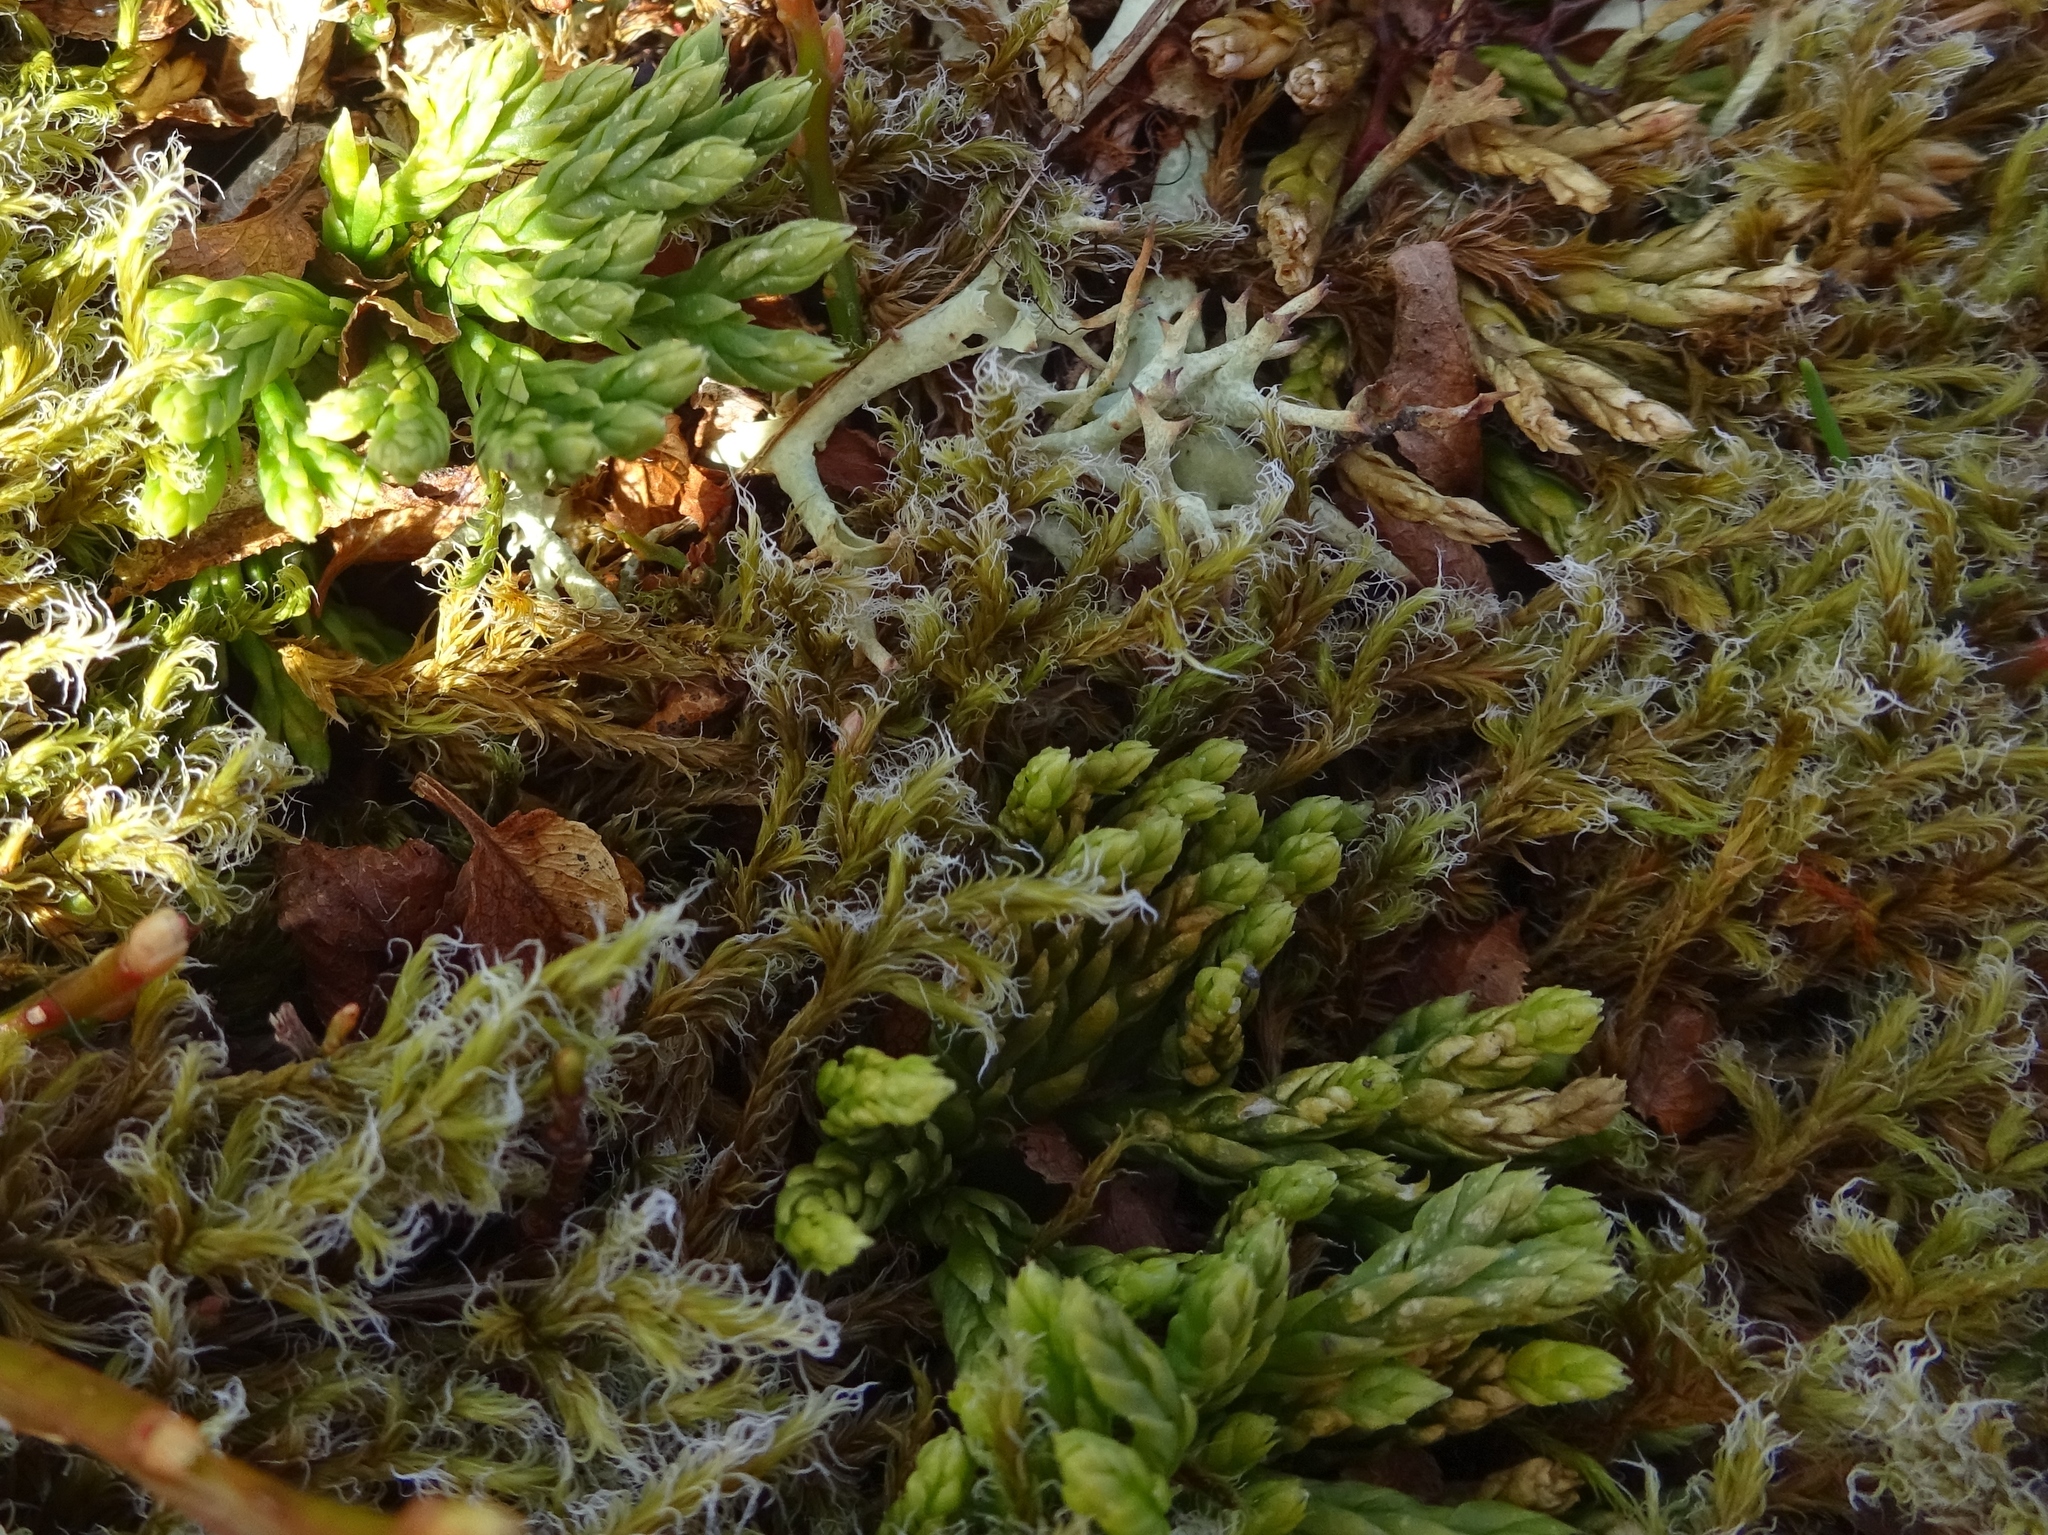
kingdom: Plantae
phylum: Tracheophyta
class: Lycopodiopsida
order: Lycopodiales
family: Lycopodiaceae
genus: Diphasiastrum
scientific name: Diphasiastrum alpinum
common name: Alpine clubmoss
